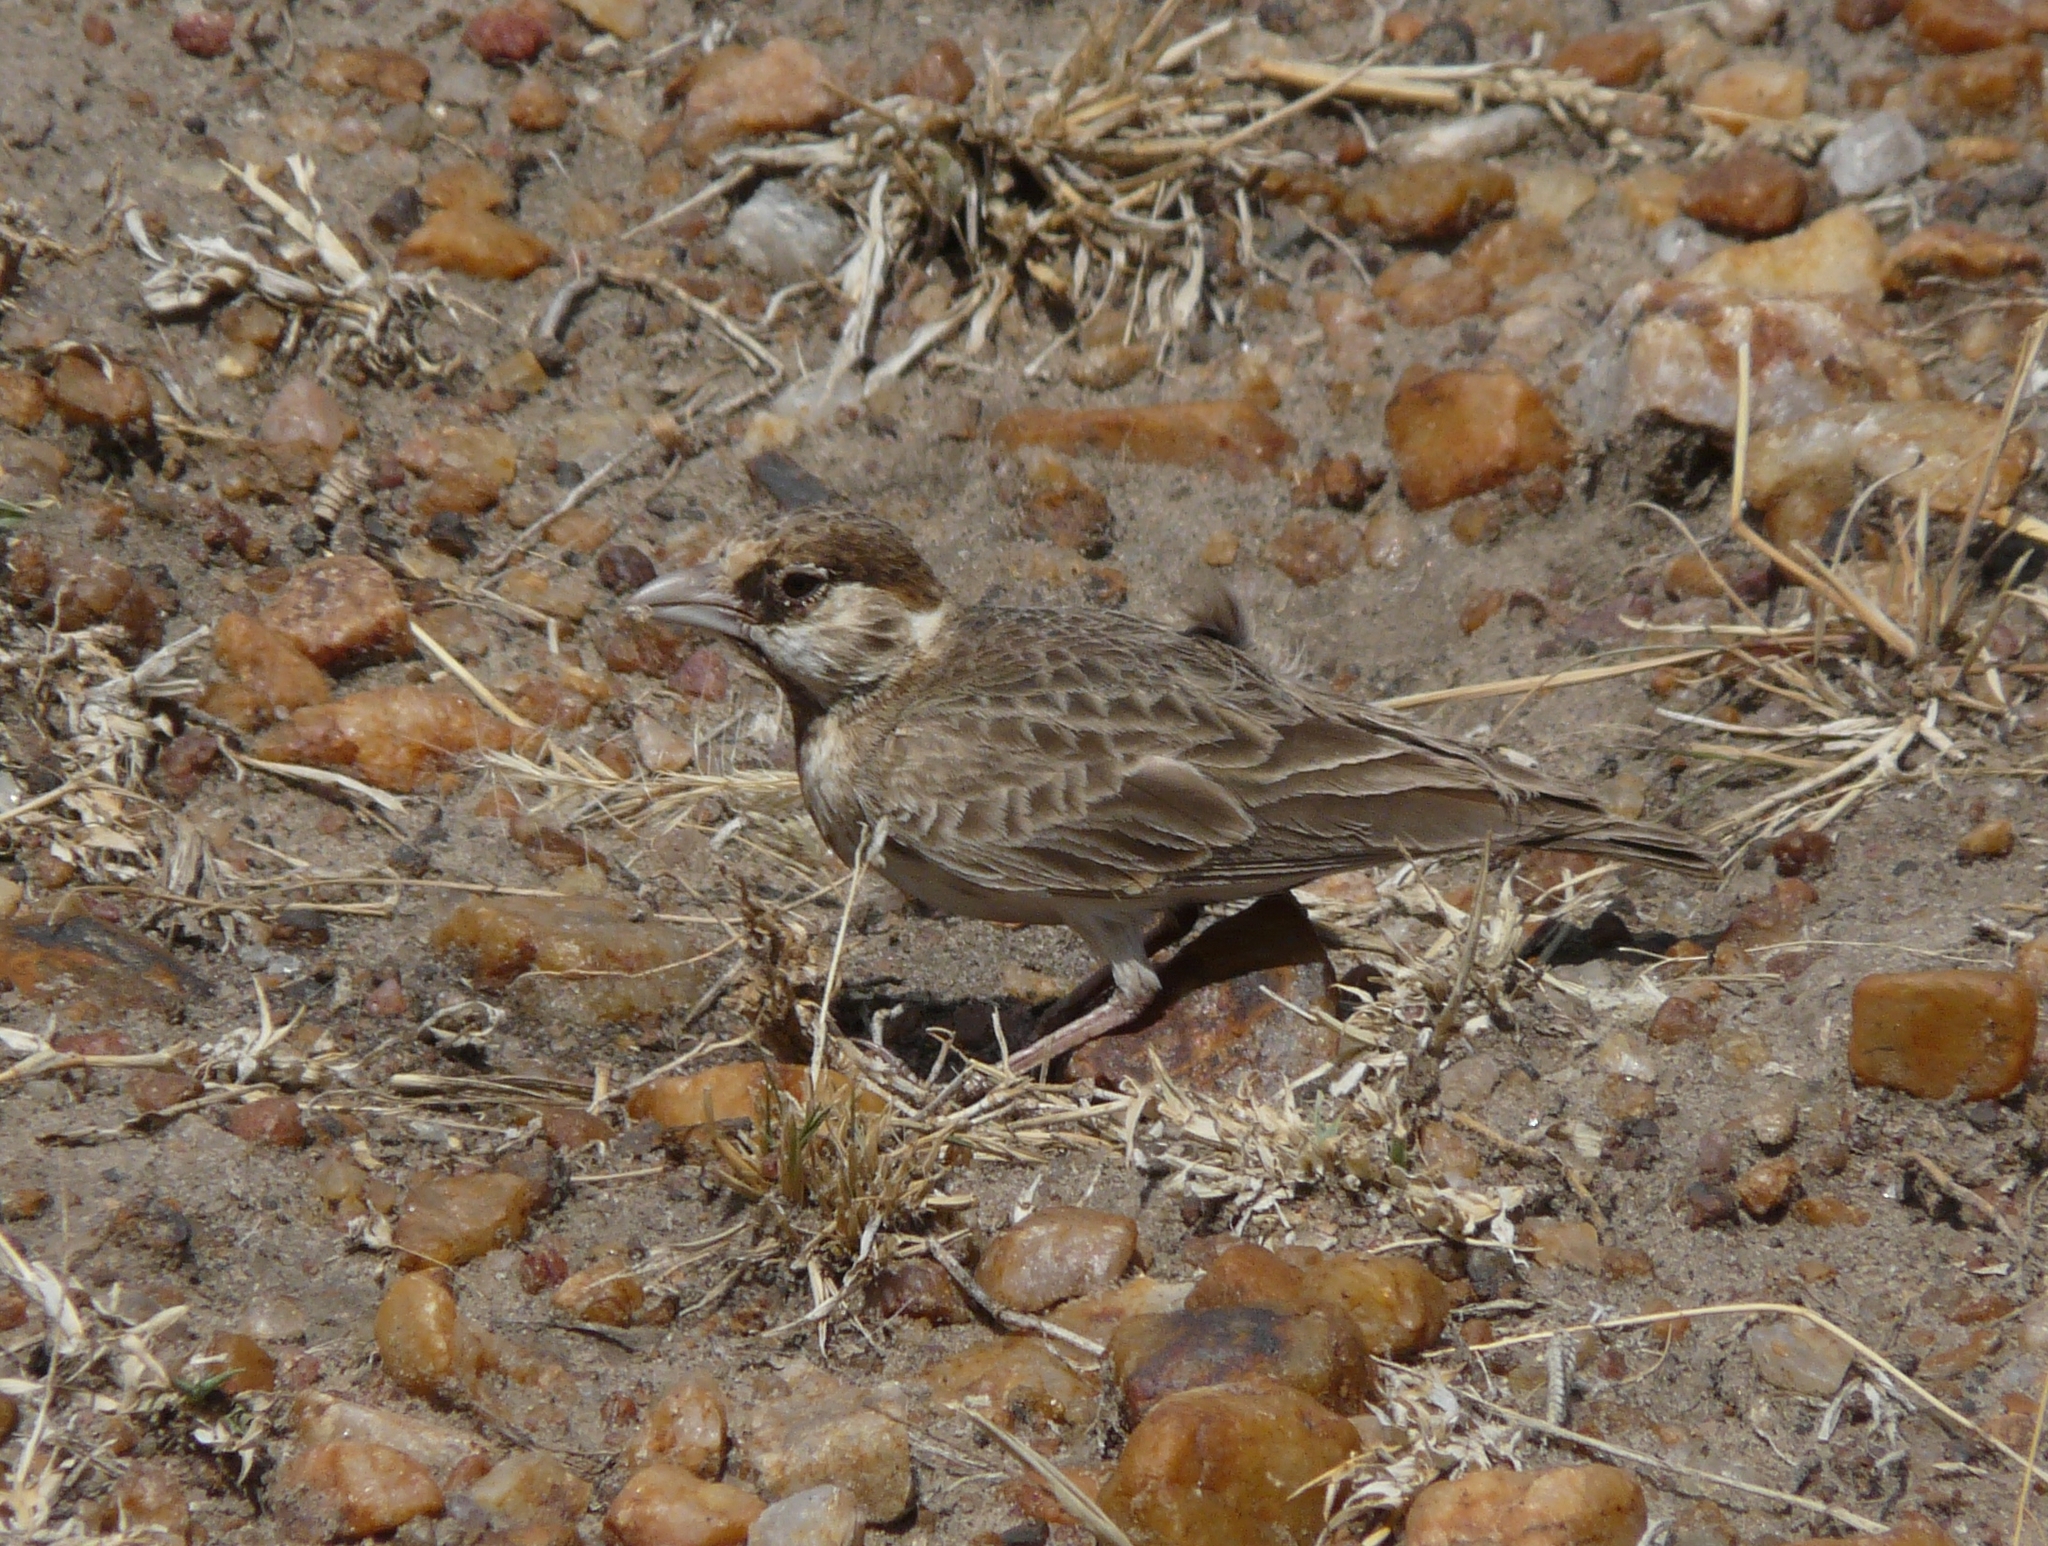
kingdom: Animalia
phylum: Chordata
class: Aves
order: Passeriformes
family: Alaudidae
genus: Eremopterix
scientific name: Eremopterix leucopareia
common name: Fischer's sparrow-lark
